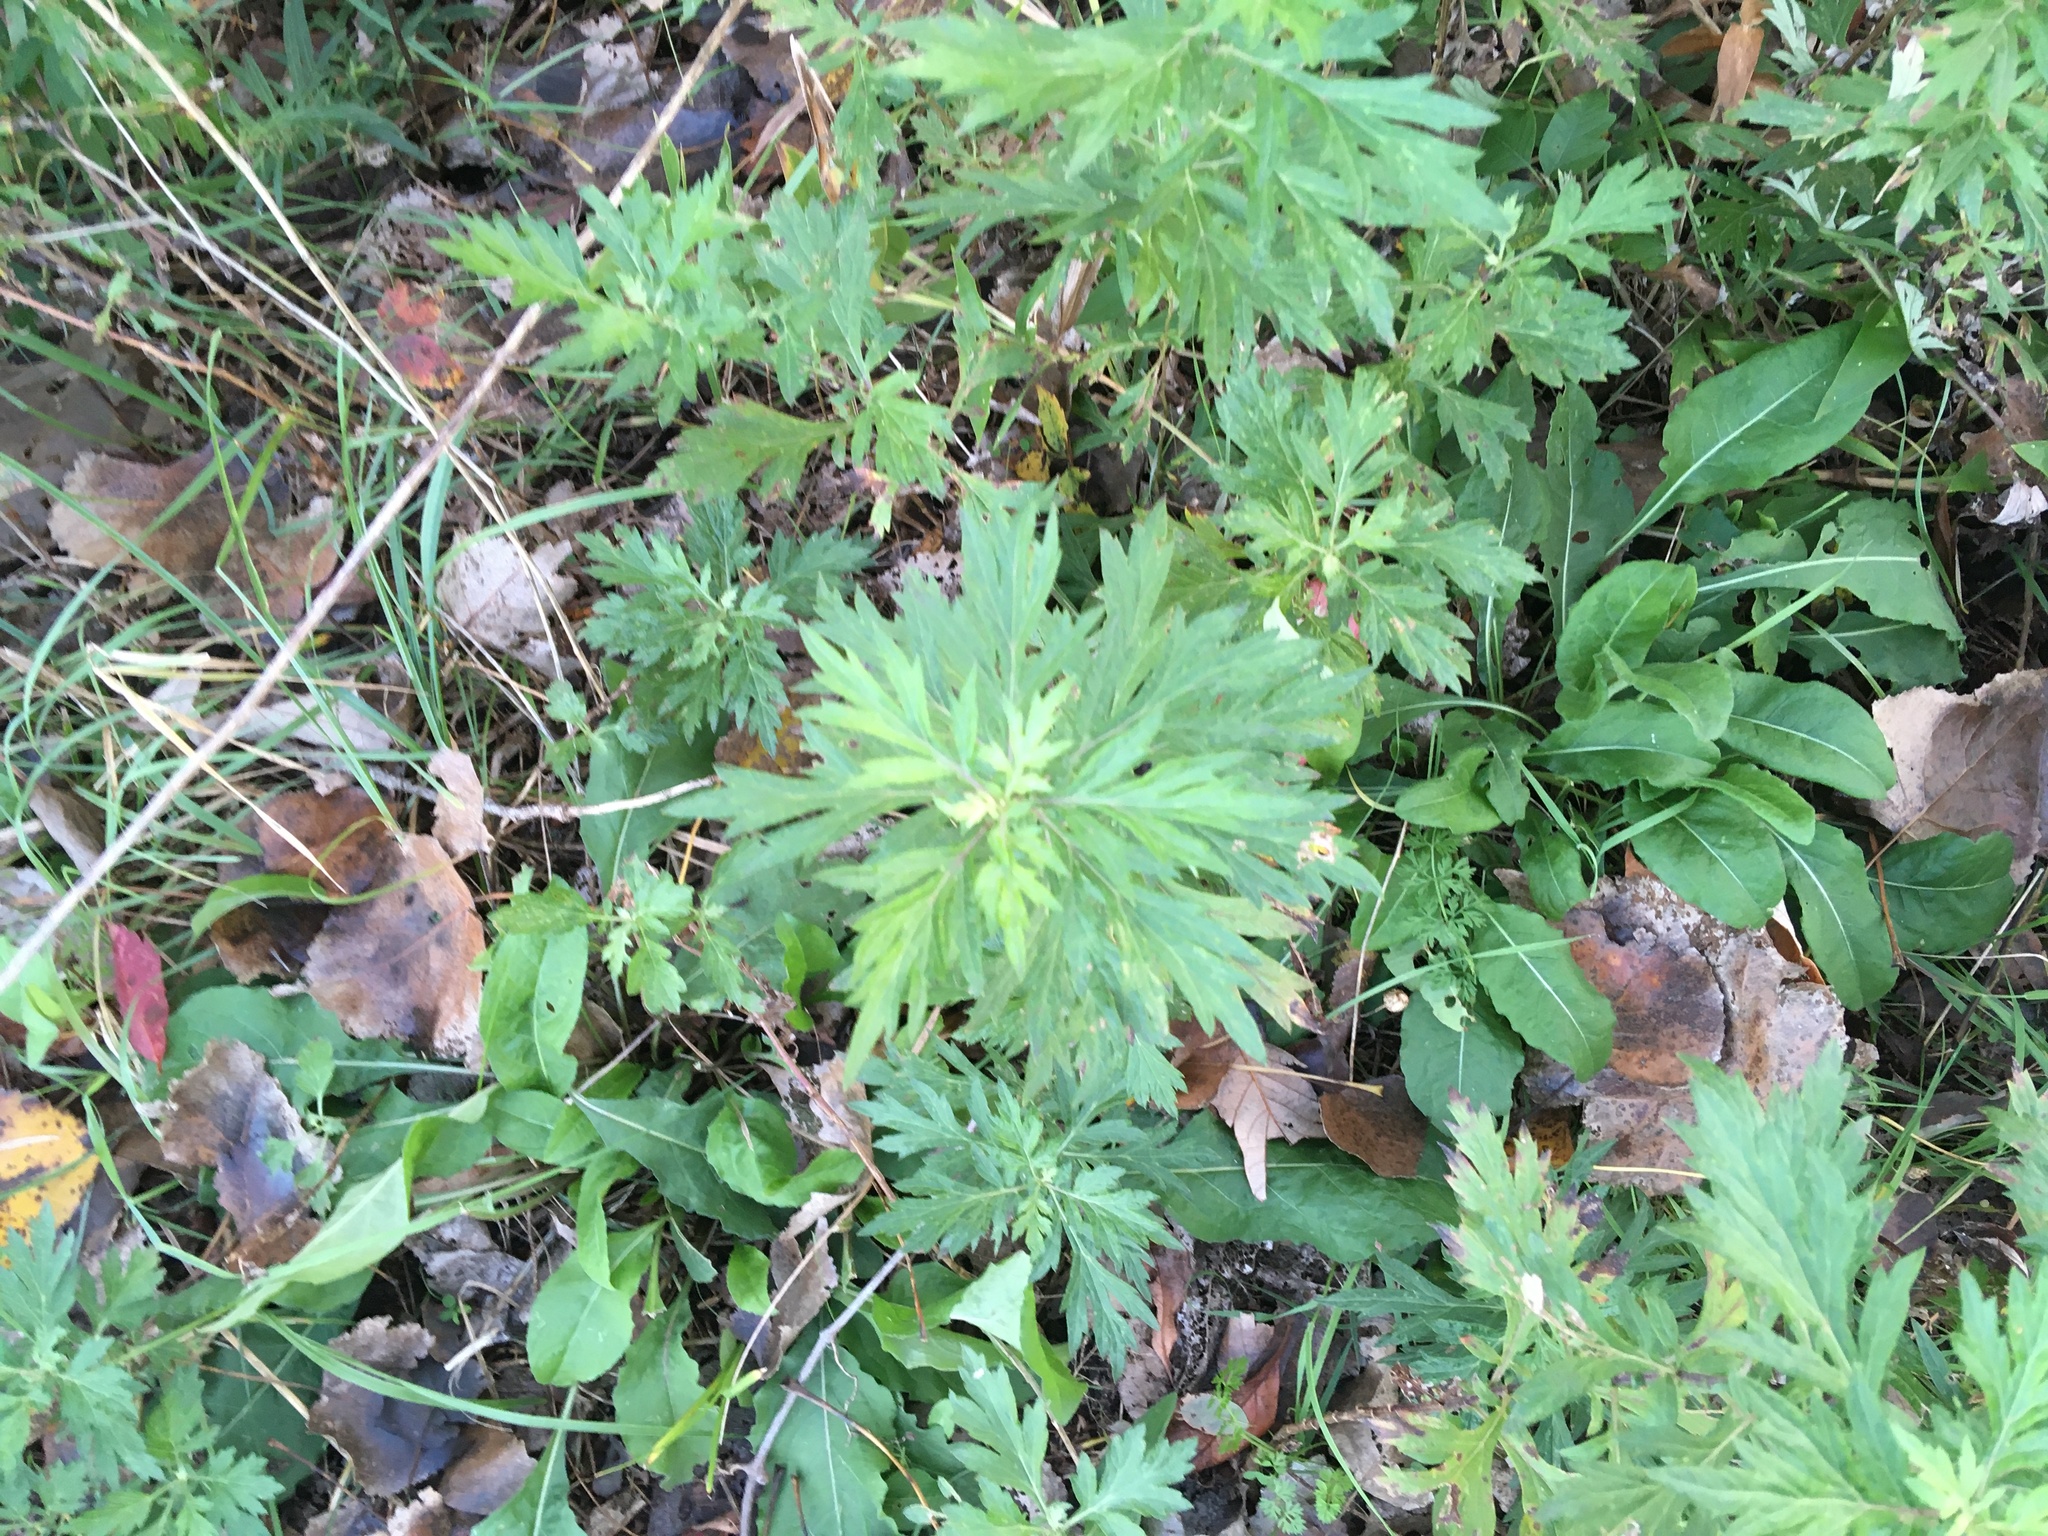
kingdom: Plantae
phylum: Tracheophyta
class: Magnoliopsida
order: Asterales
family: Asteraceae
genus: Artemisia
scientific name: Artemisia vulgaris
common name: Mugwort
